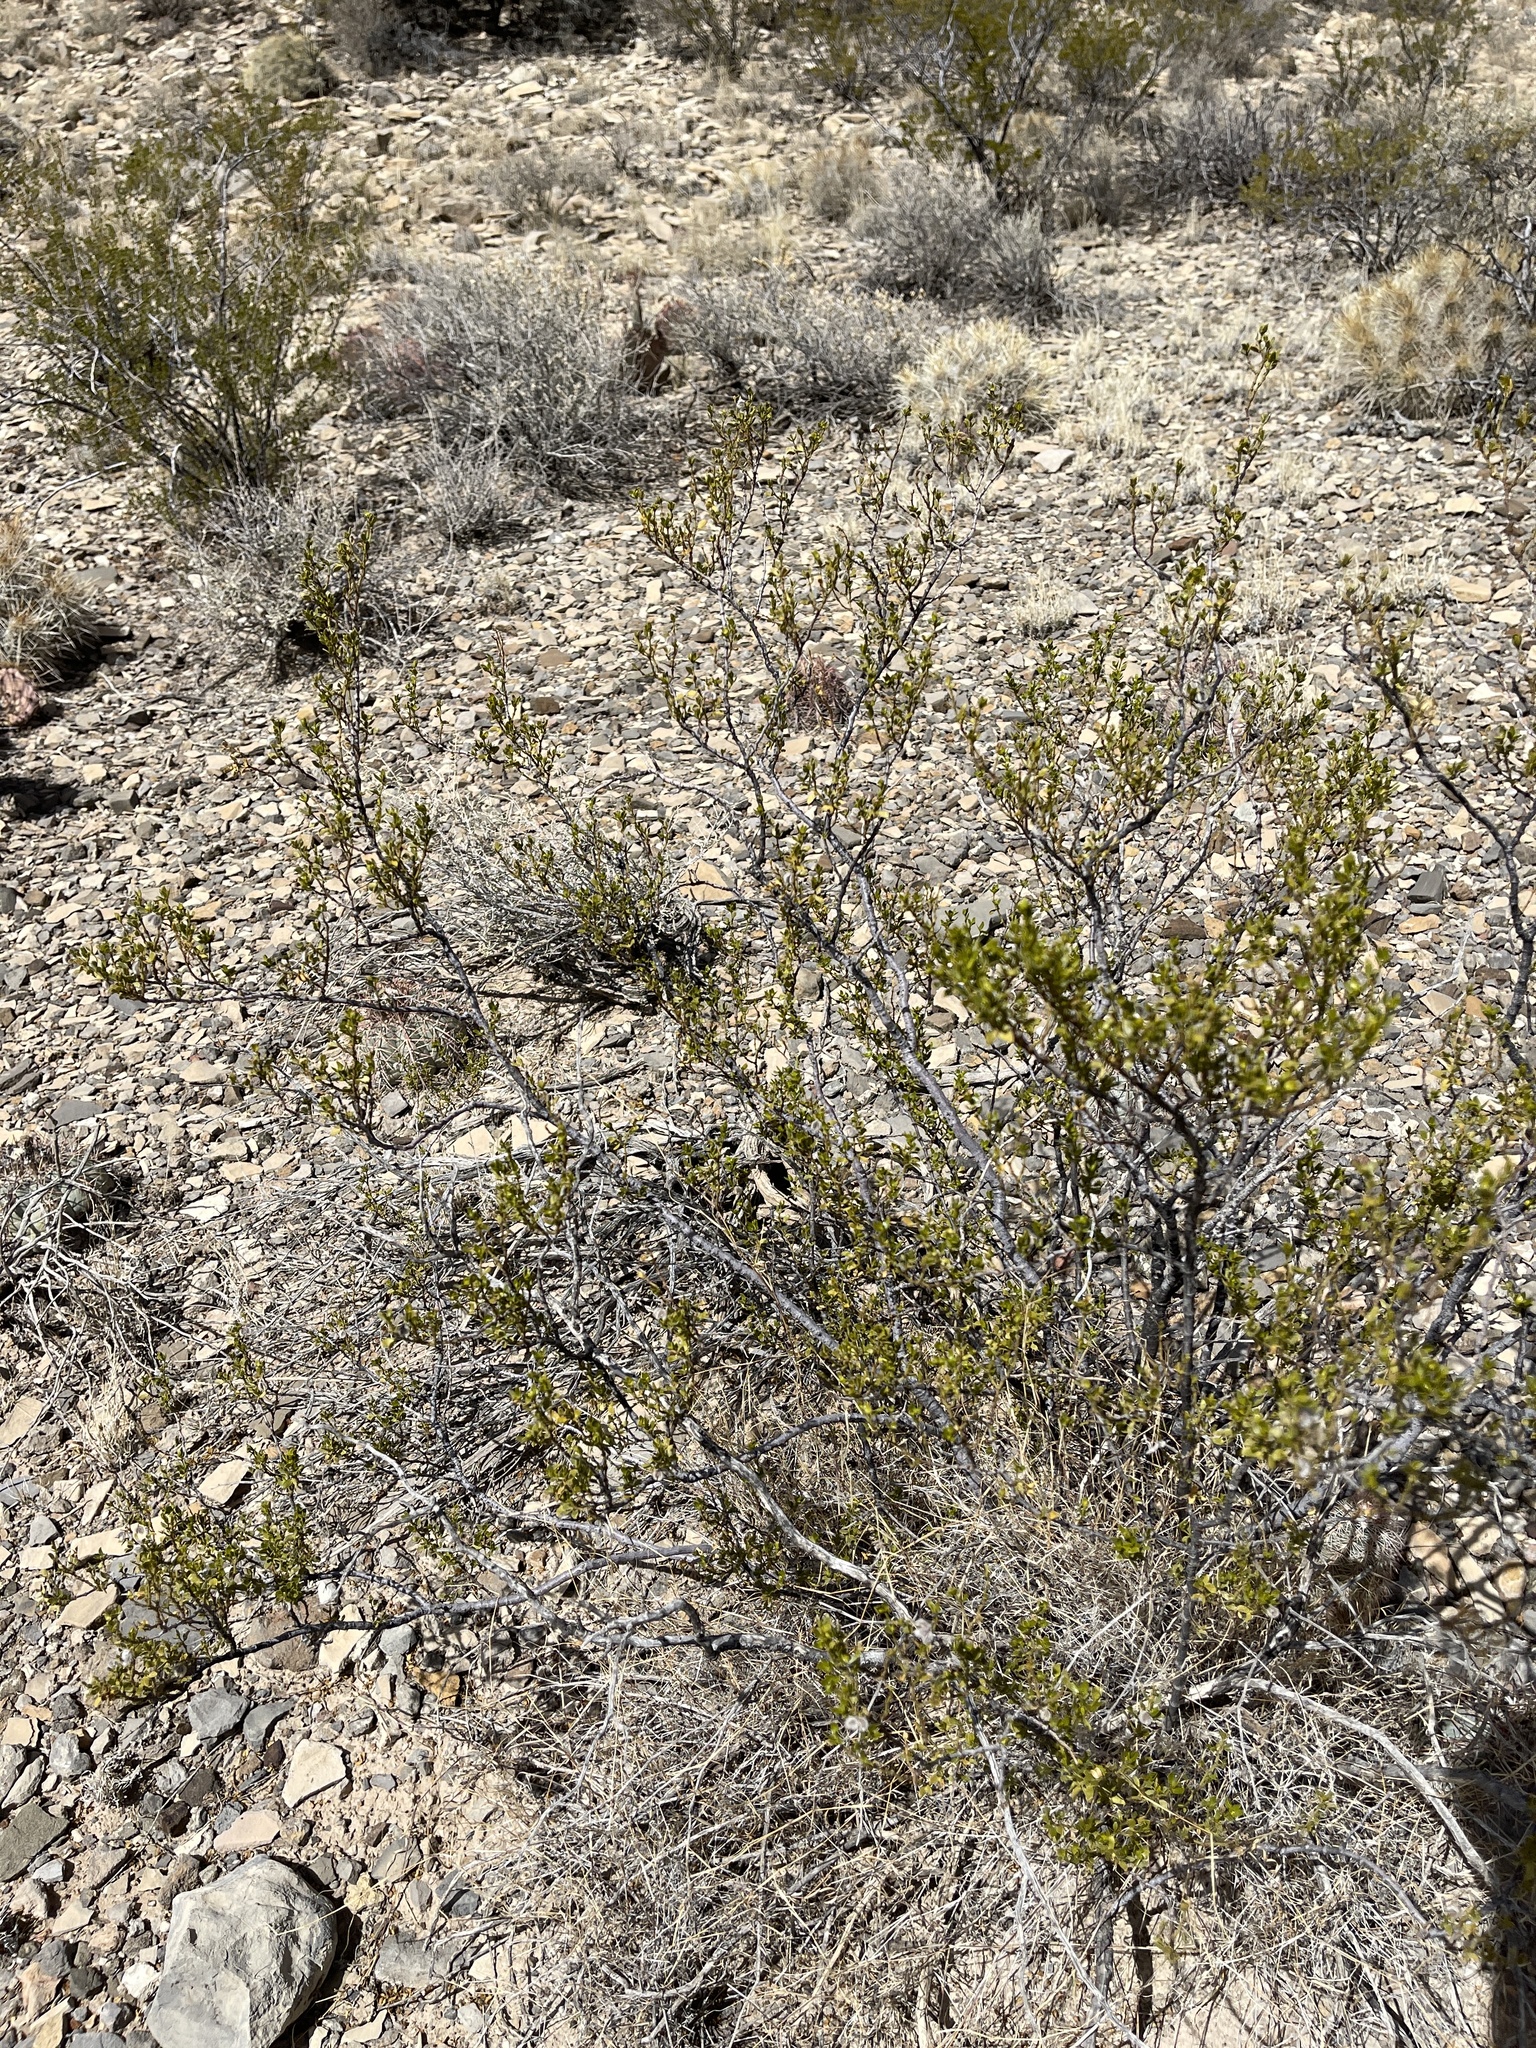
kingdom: Plantae
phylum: Tracheophyta
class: Magnoliopsida
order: Zygophyllales
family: Zygophyllaceae
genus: Larrea
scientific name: Larrea tridentata
